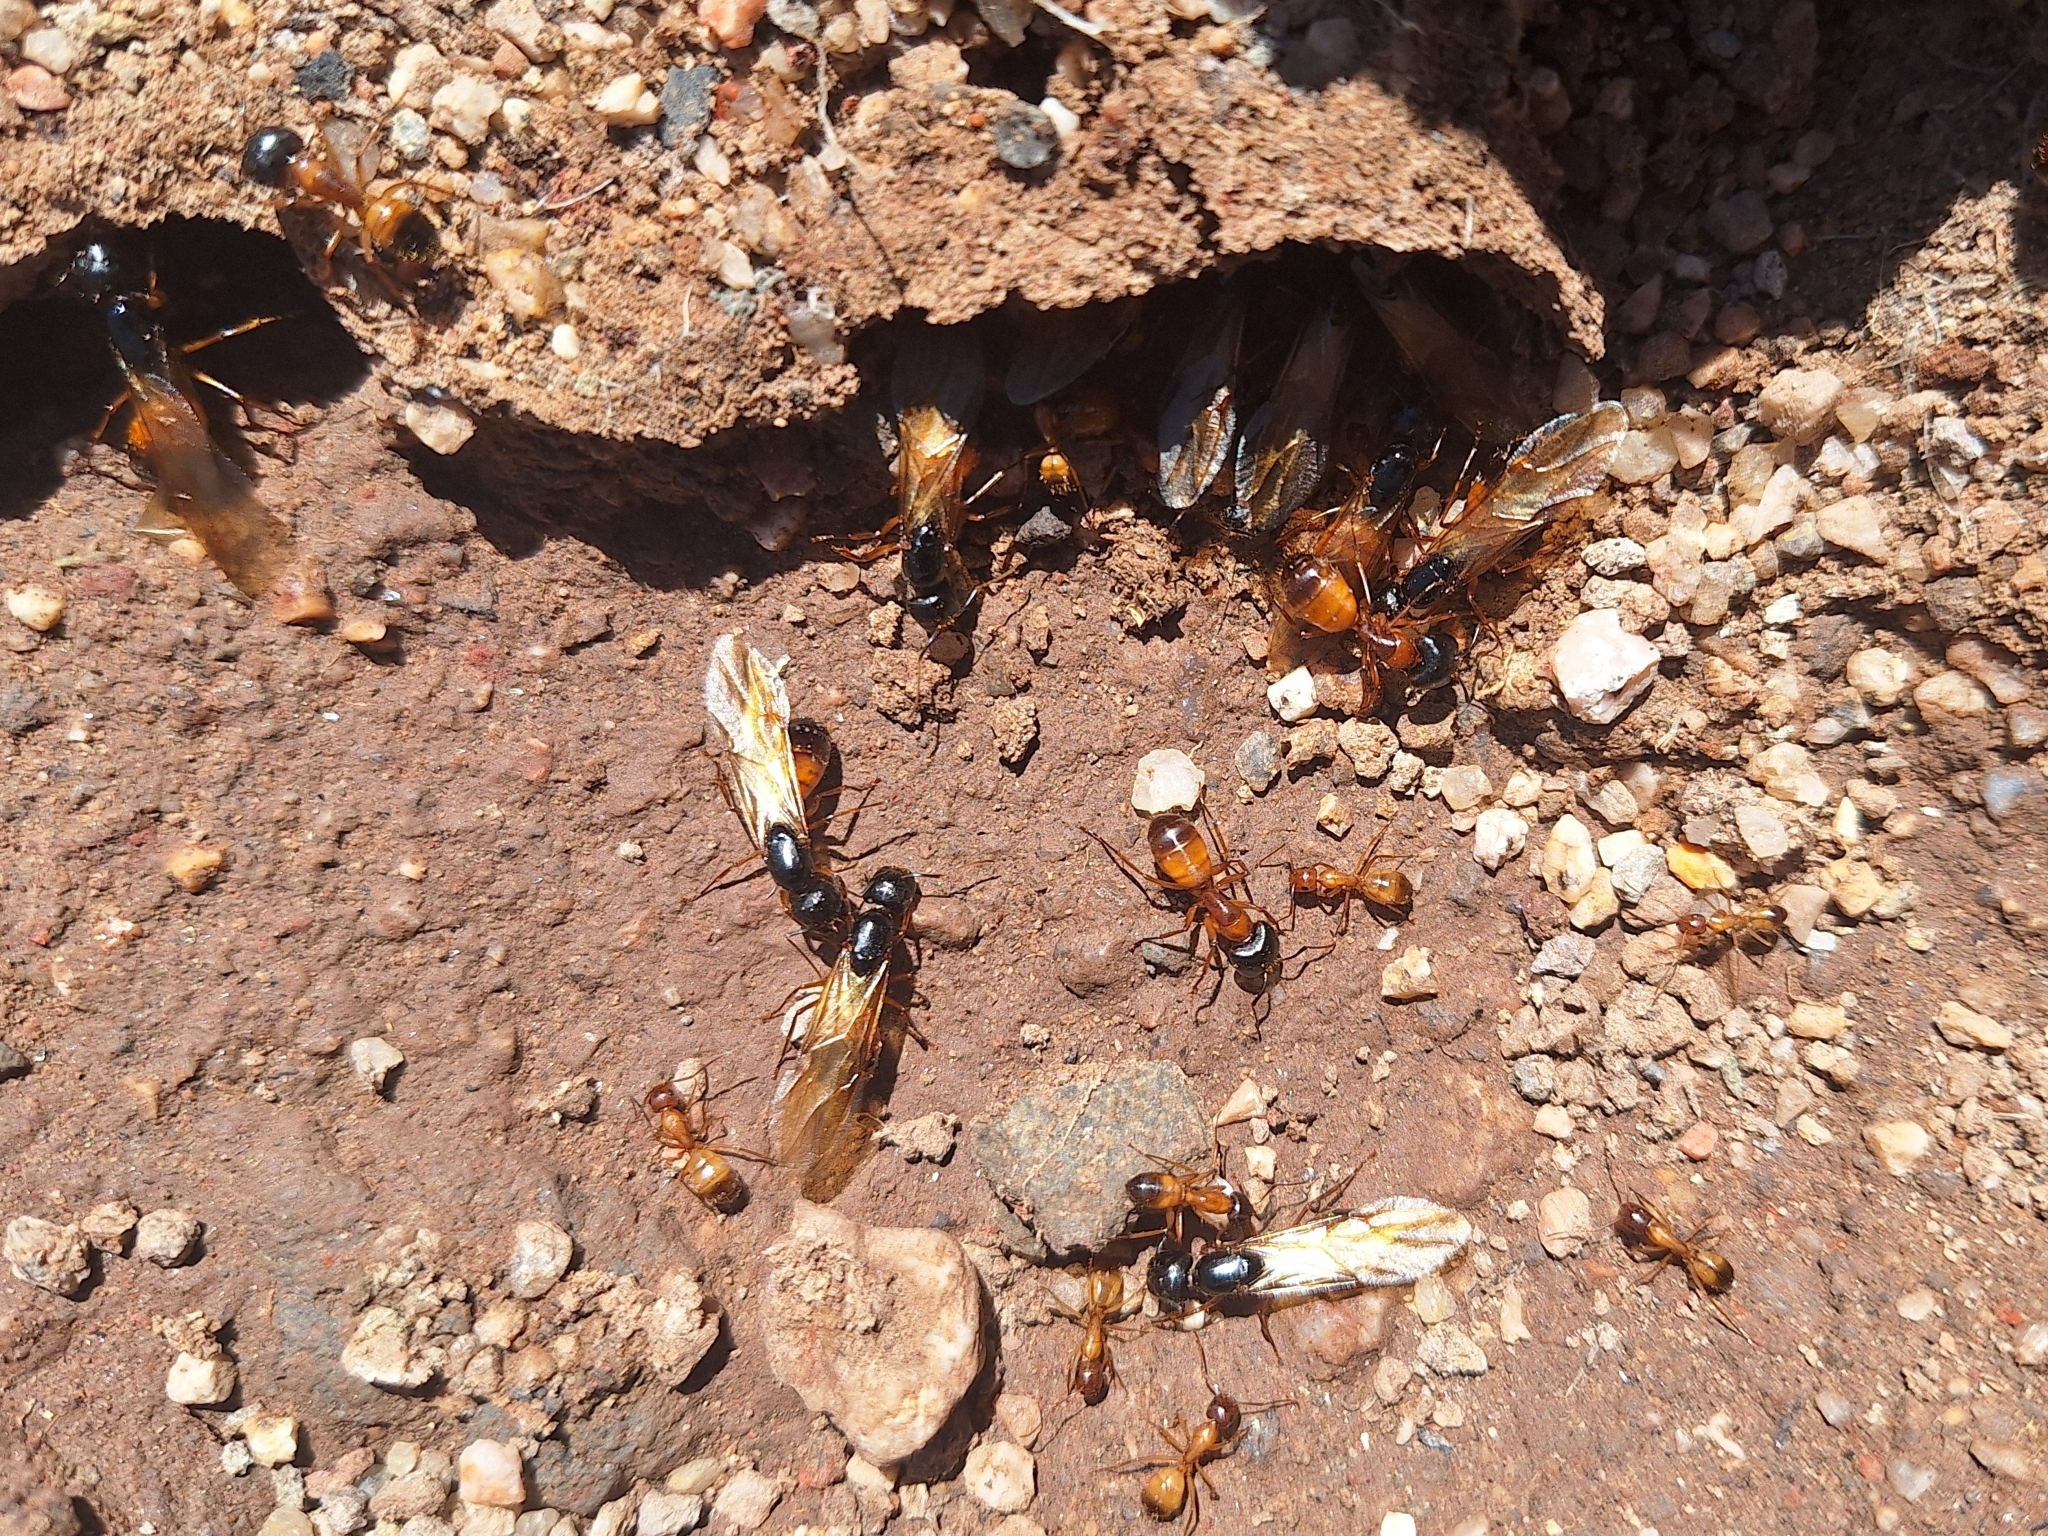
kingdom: Animalia
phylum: Arthropoda
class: Insecta
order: Hymenoptera
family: Formicidae
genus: Camponotus
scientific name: Camponotus sansabeanus
